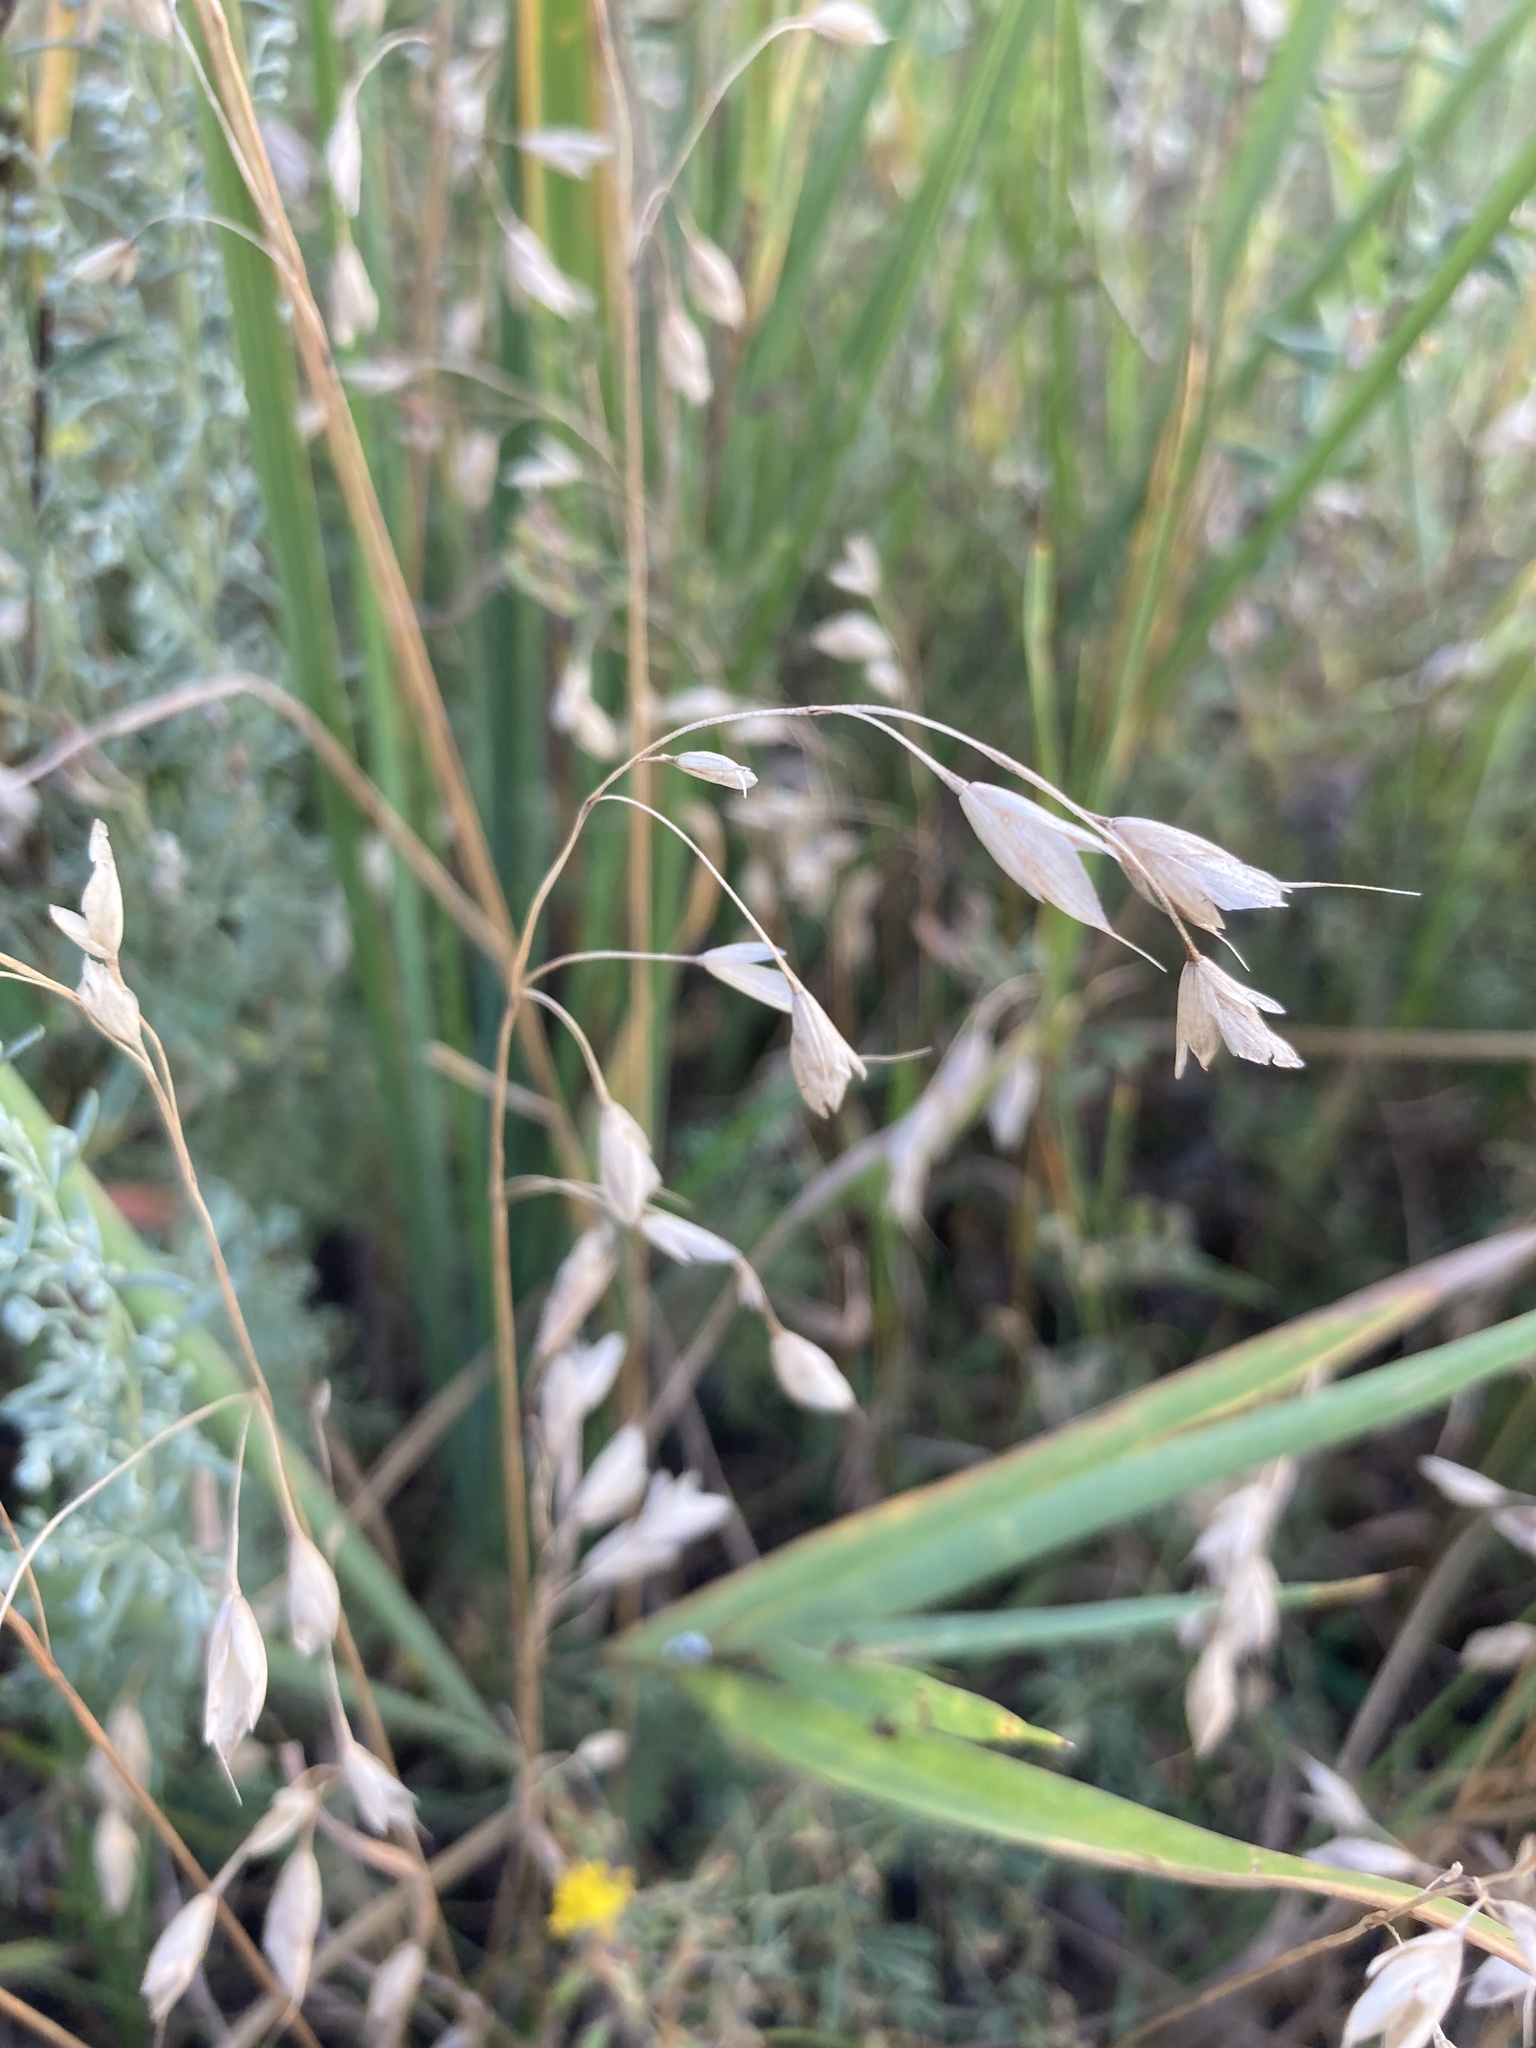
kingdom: Plantae
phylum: Tracheophyta
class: Liliopsida
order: Poales
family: Poaceae
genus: Bromus
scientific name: Bromus squarrosus
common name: Corn brome
